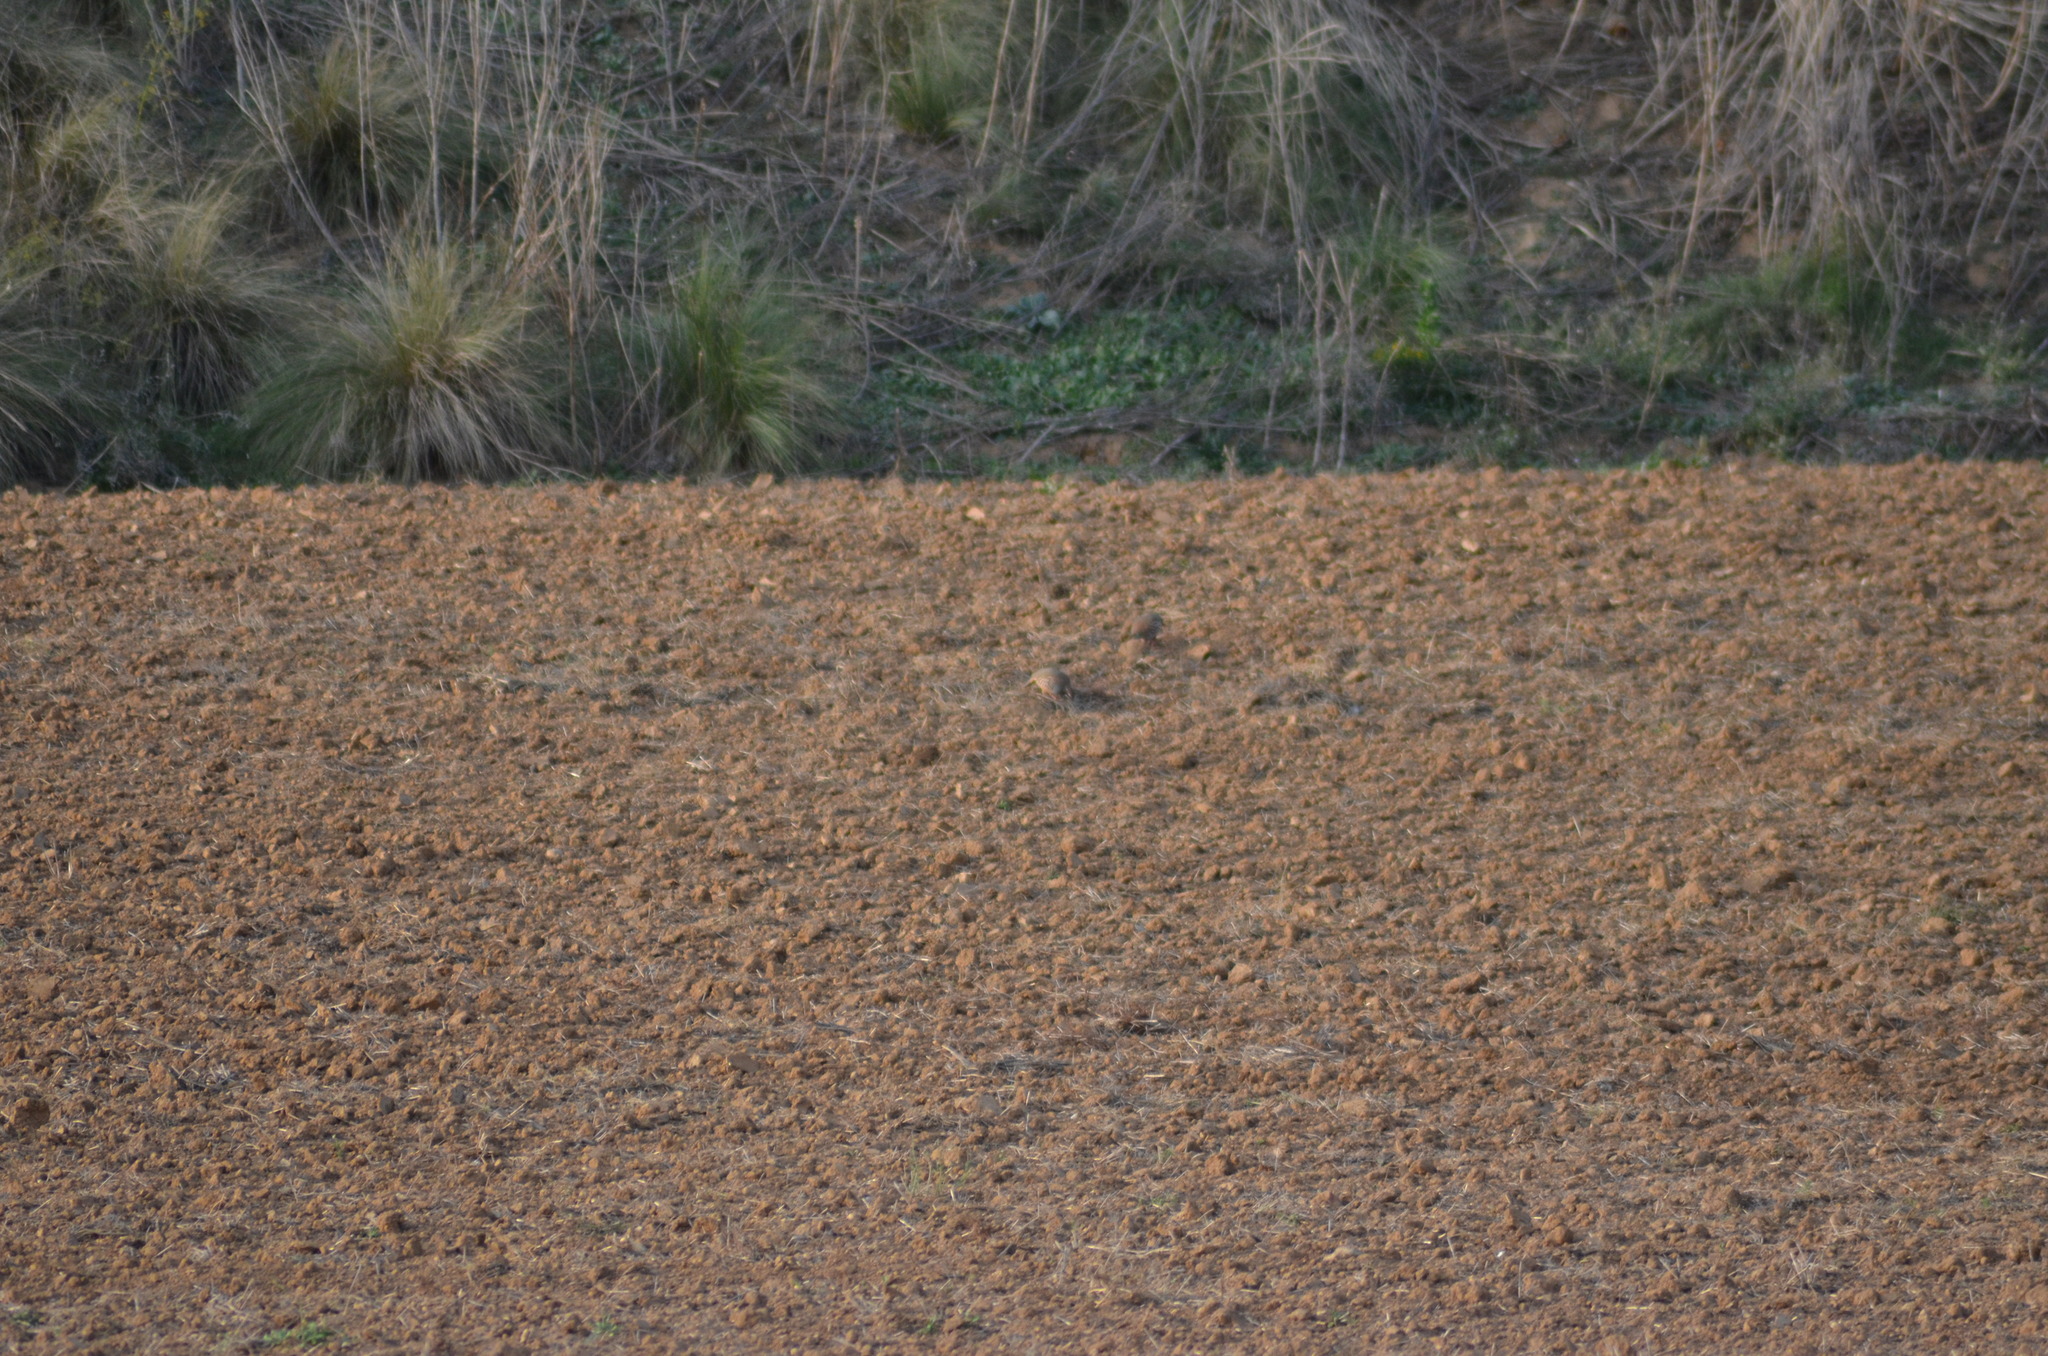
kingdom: Animalia
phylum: Chordata
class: Aves
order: Galliformes
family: Phasianidae
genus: Alectoris
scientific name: Alectoris rufa
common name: Red-legged partridge
